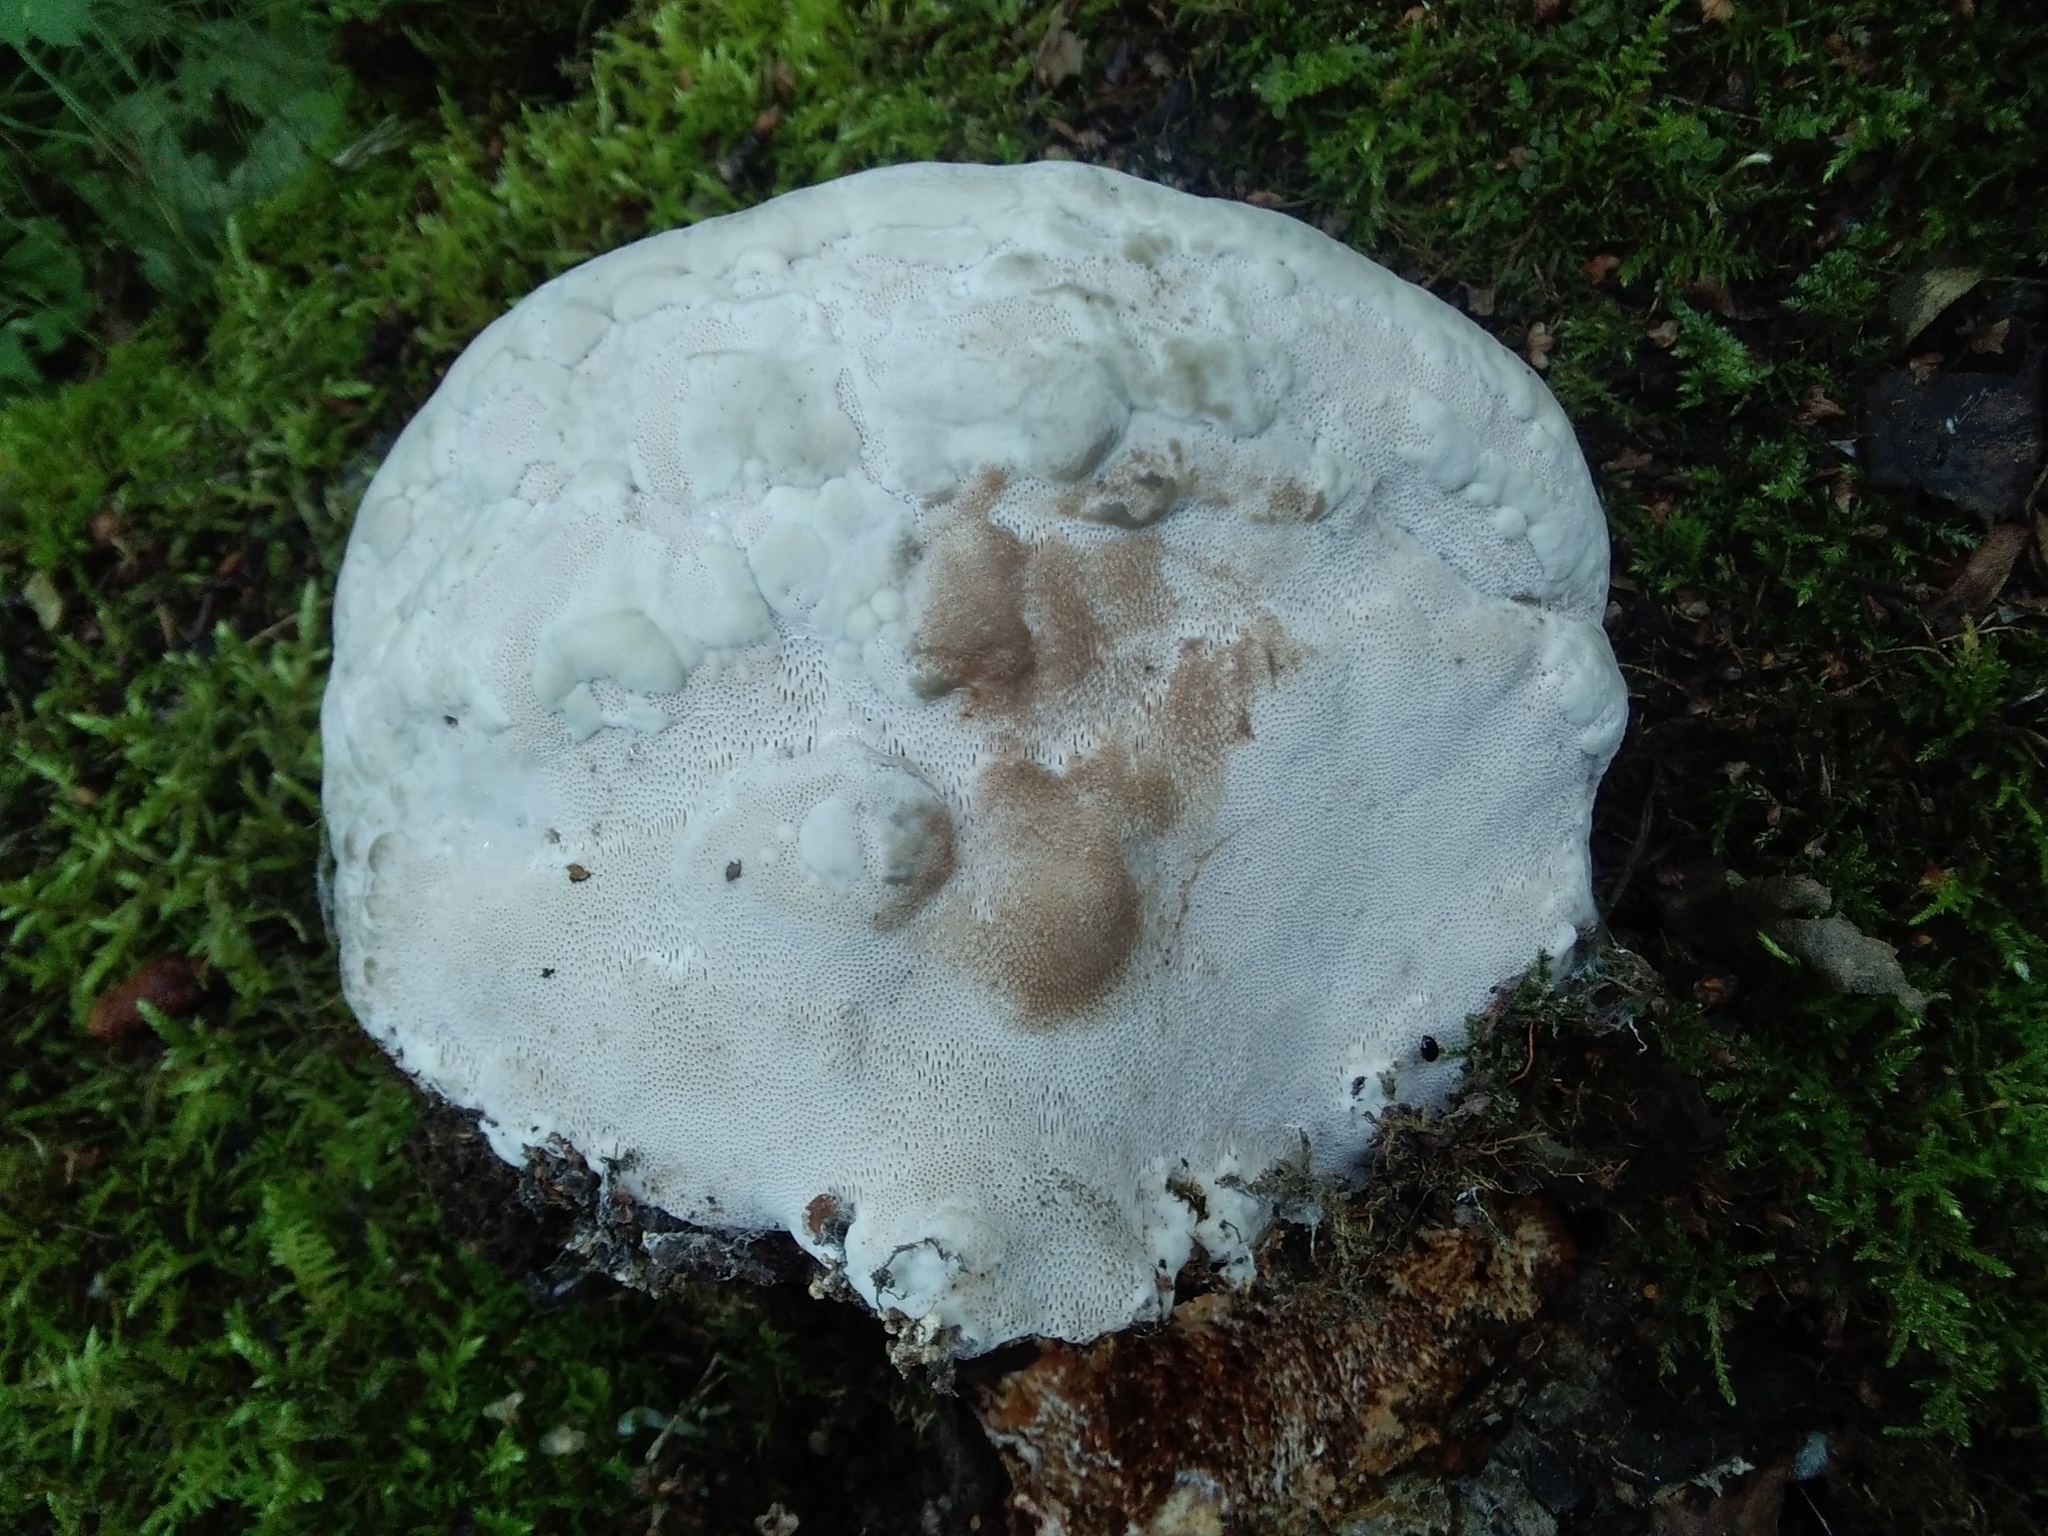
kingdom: Fungi
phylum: Basidiomycota
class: Agaricomycetes
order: Polyporales
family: Polyporaceae
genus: Fomes
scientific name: Fomes fomentarius
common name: Hoof fungus
